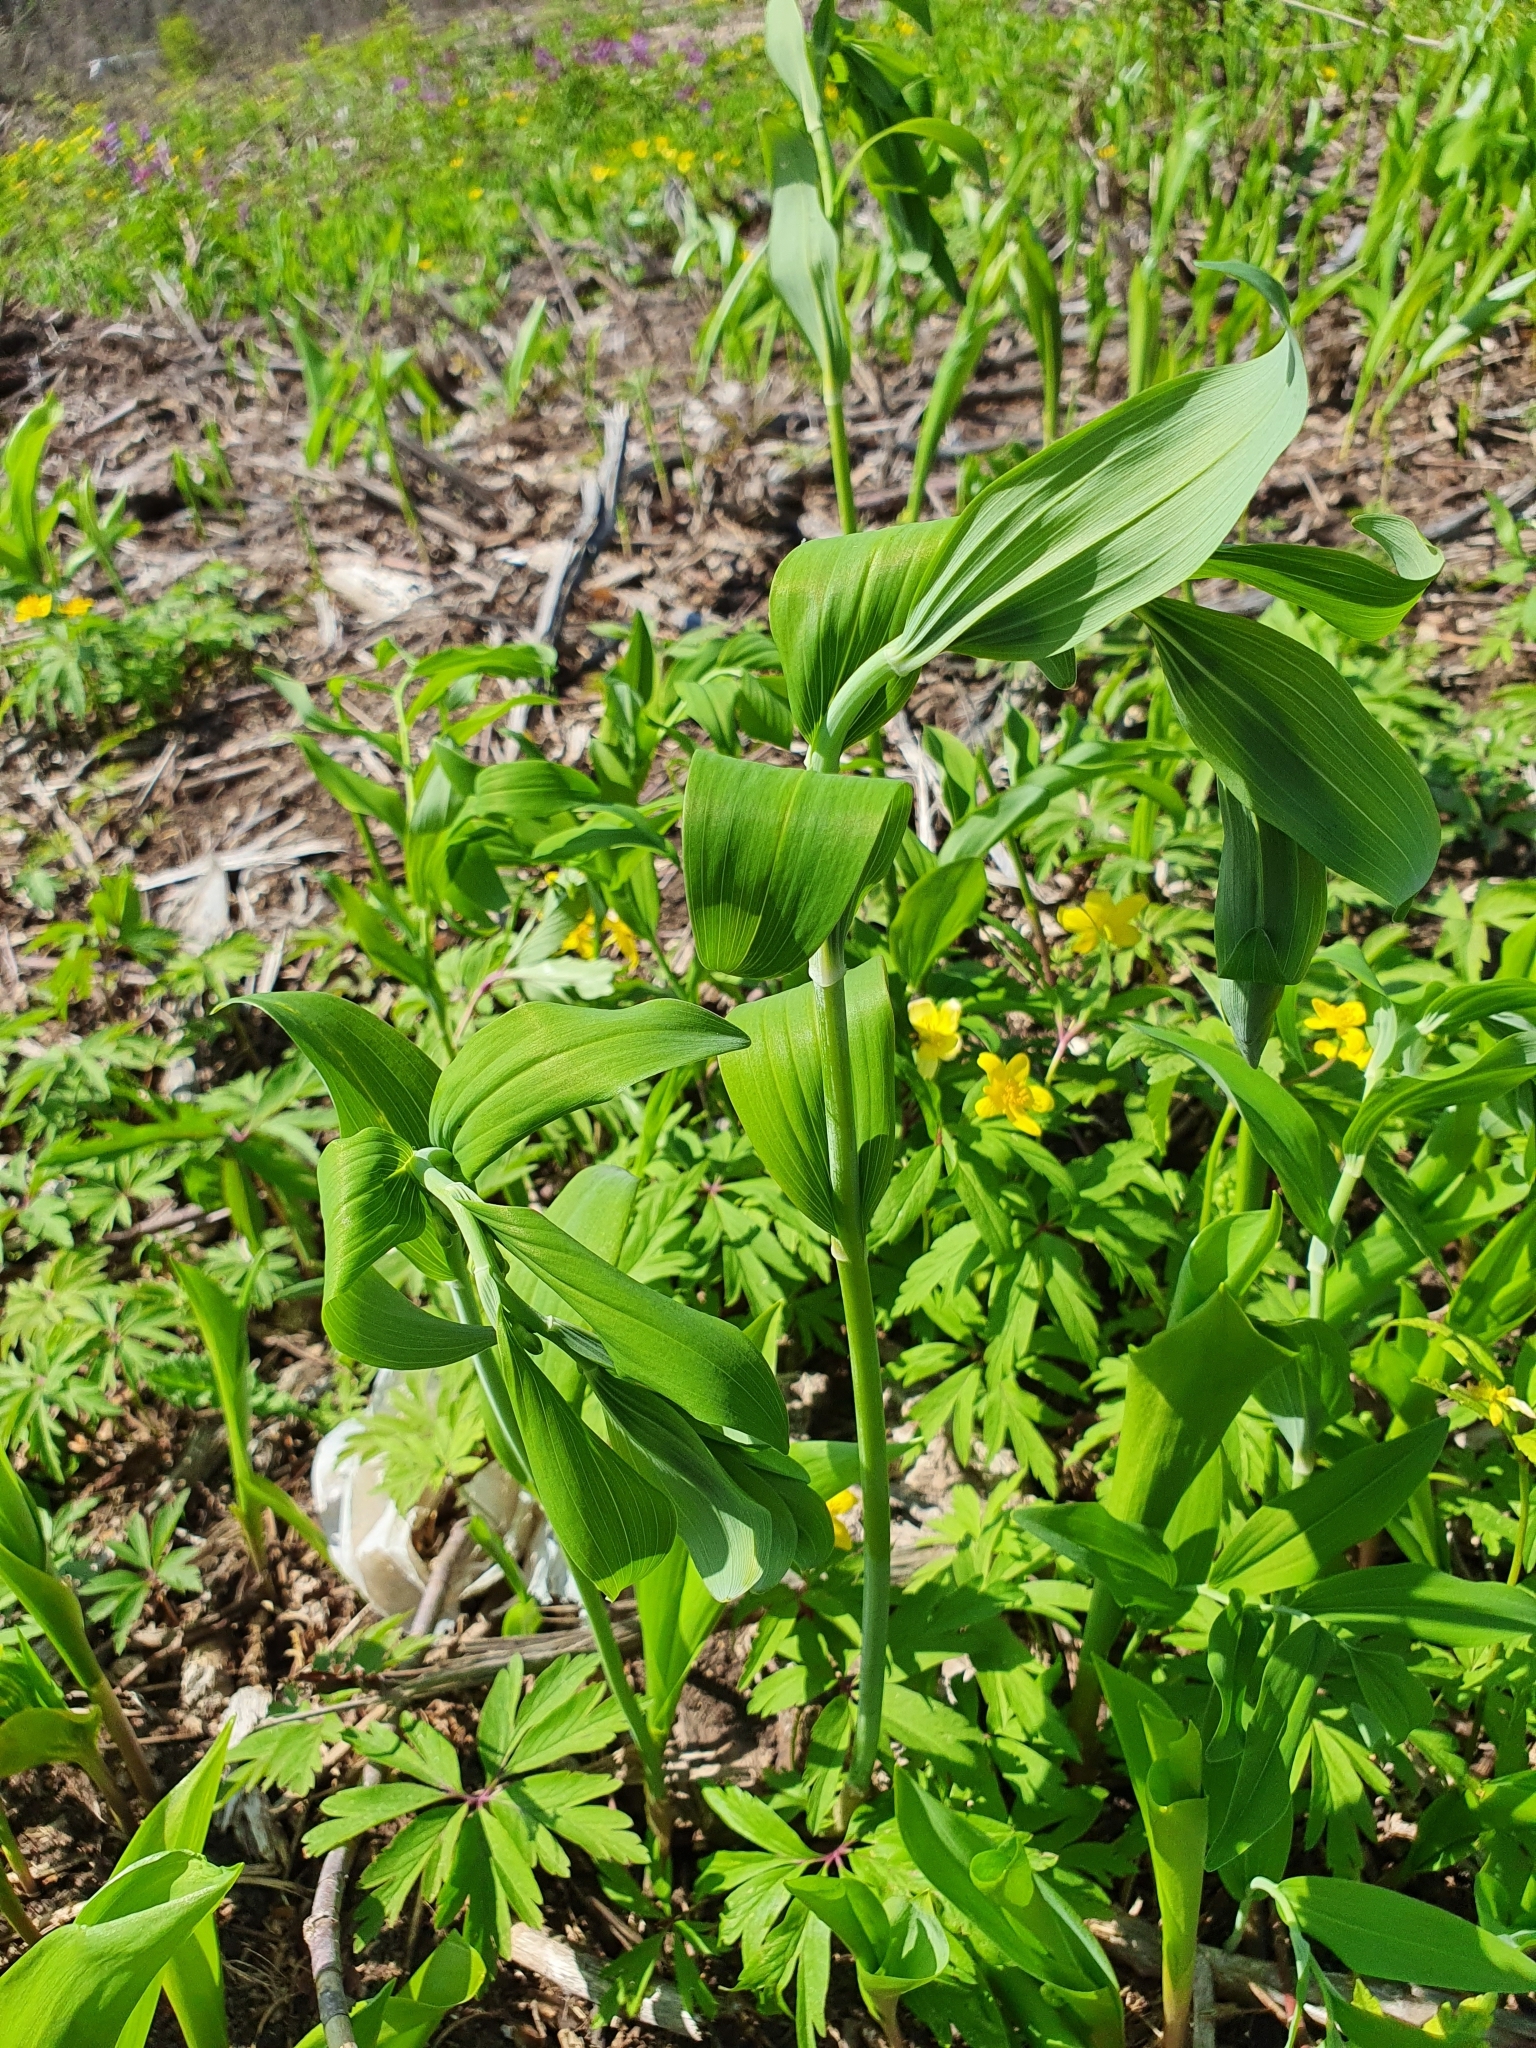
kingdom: Plantae
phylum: Tracheophyta
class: Liliopsida
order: Asparagales
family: Asparagaceae
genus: Polygonatum
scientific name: Polygonatum odoratum
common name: Angular solomon's-seal
